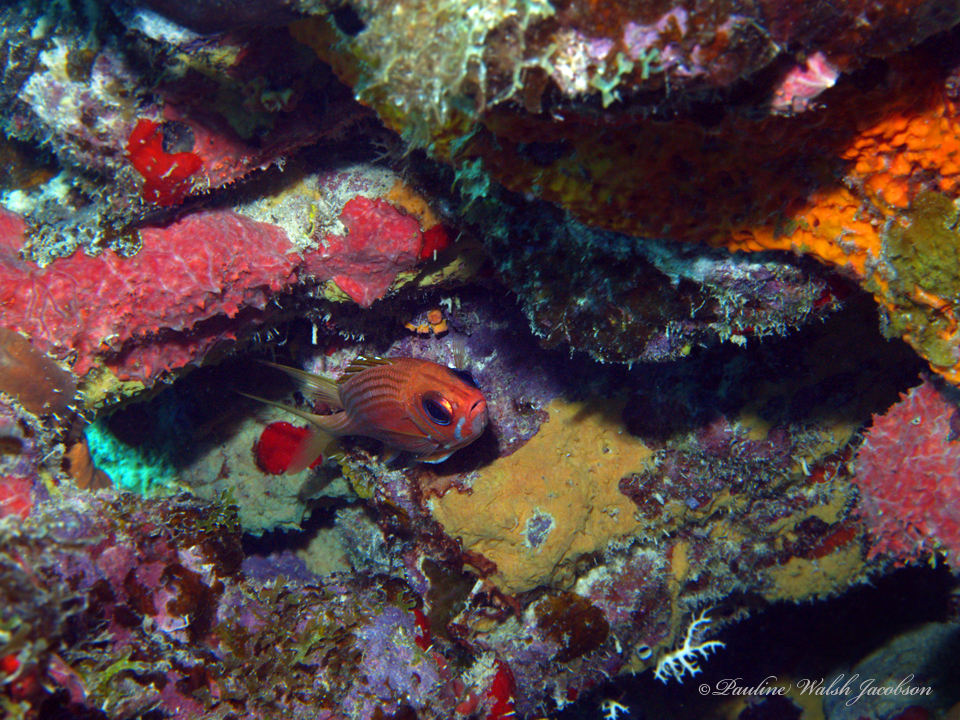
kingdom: Animalia
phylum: Chordata
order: Beryciformes
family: Holocentridae
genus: Holocentrus
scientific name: Holocentrus rufus
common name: Longspine squirrelfish
